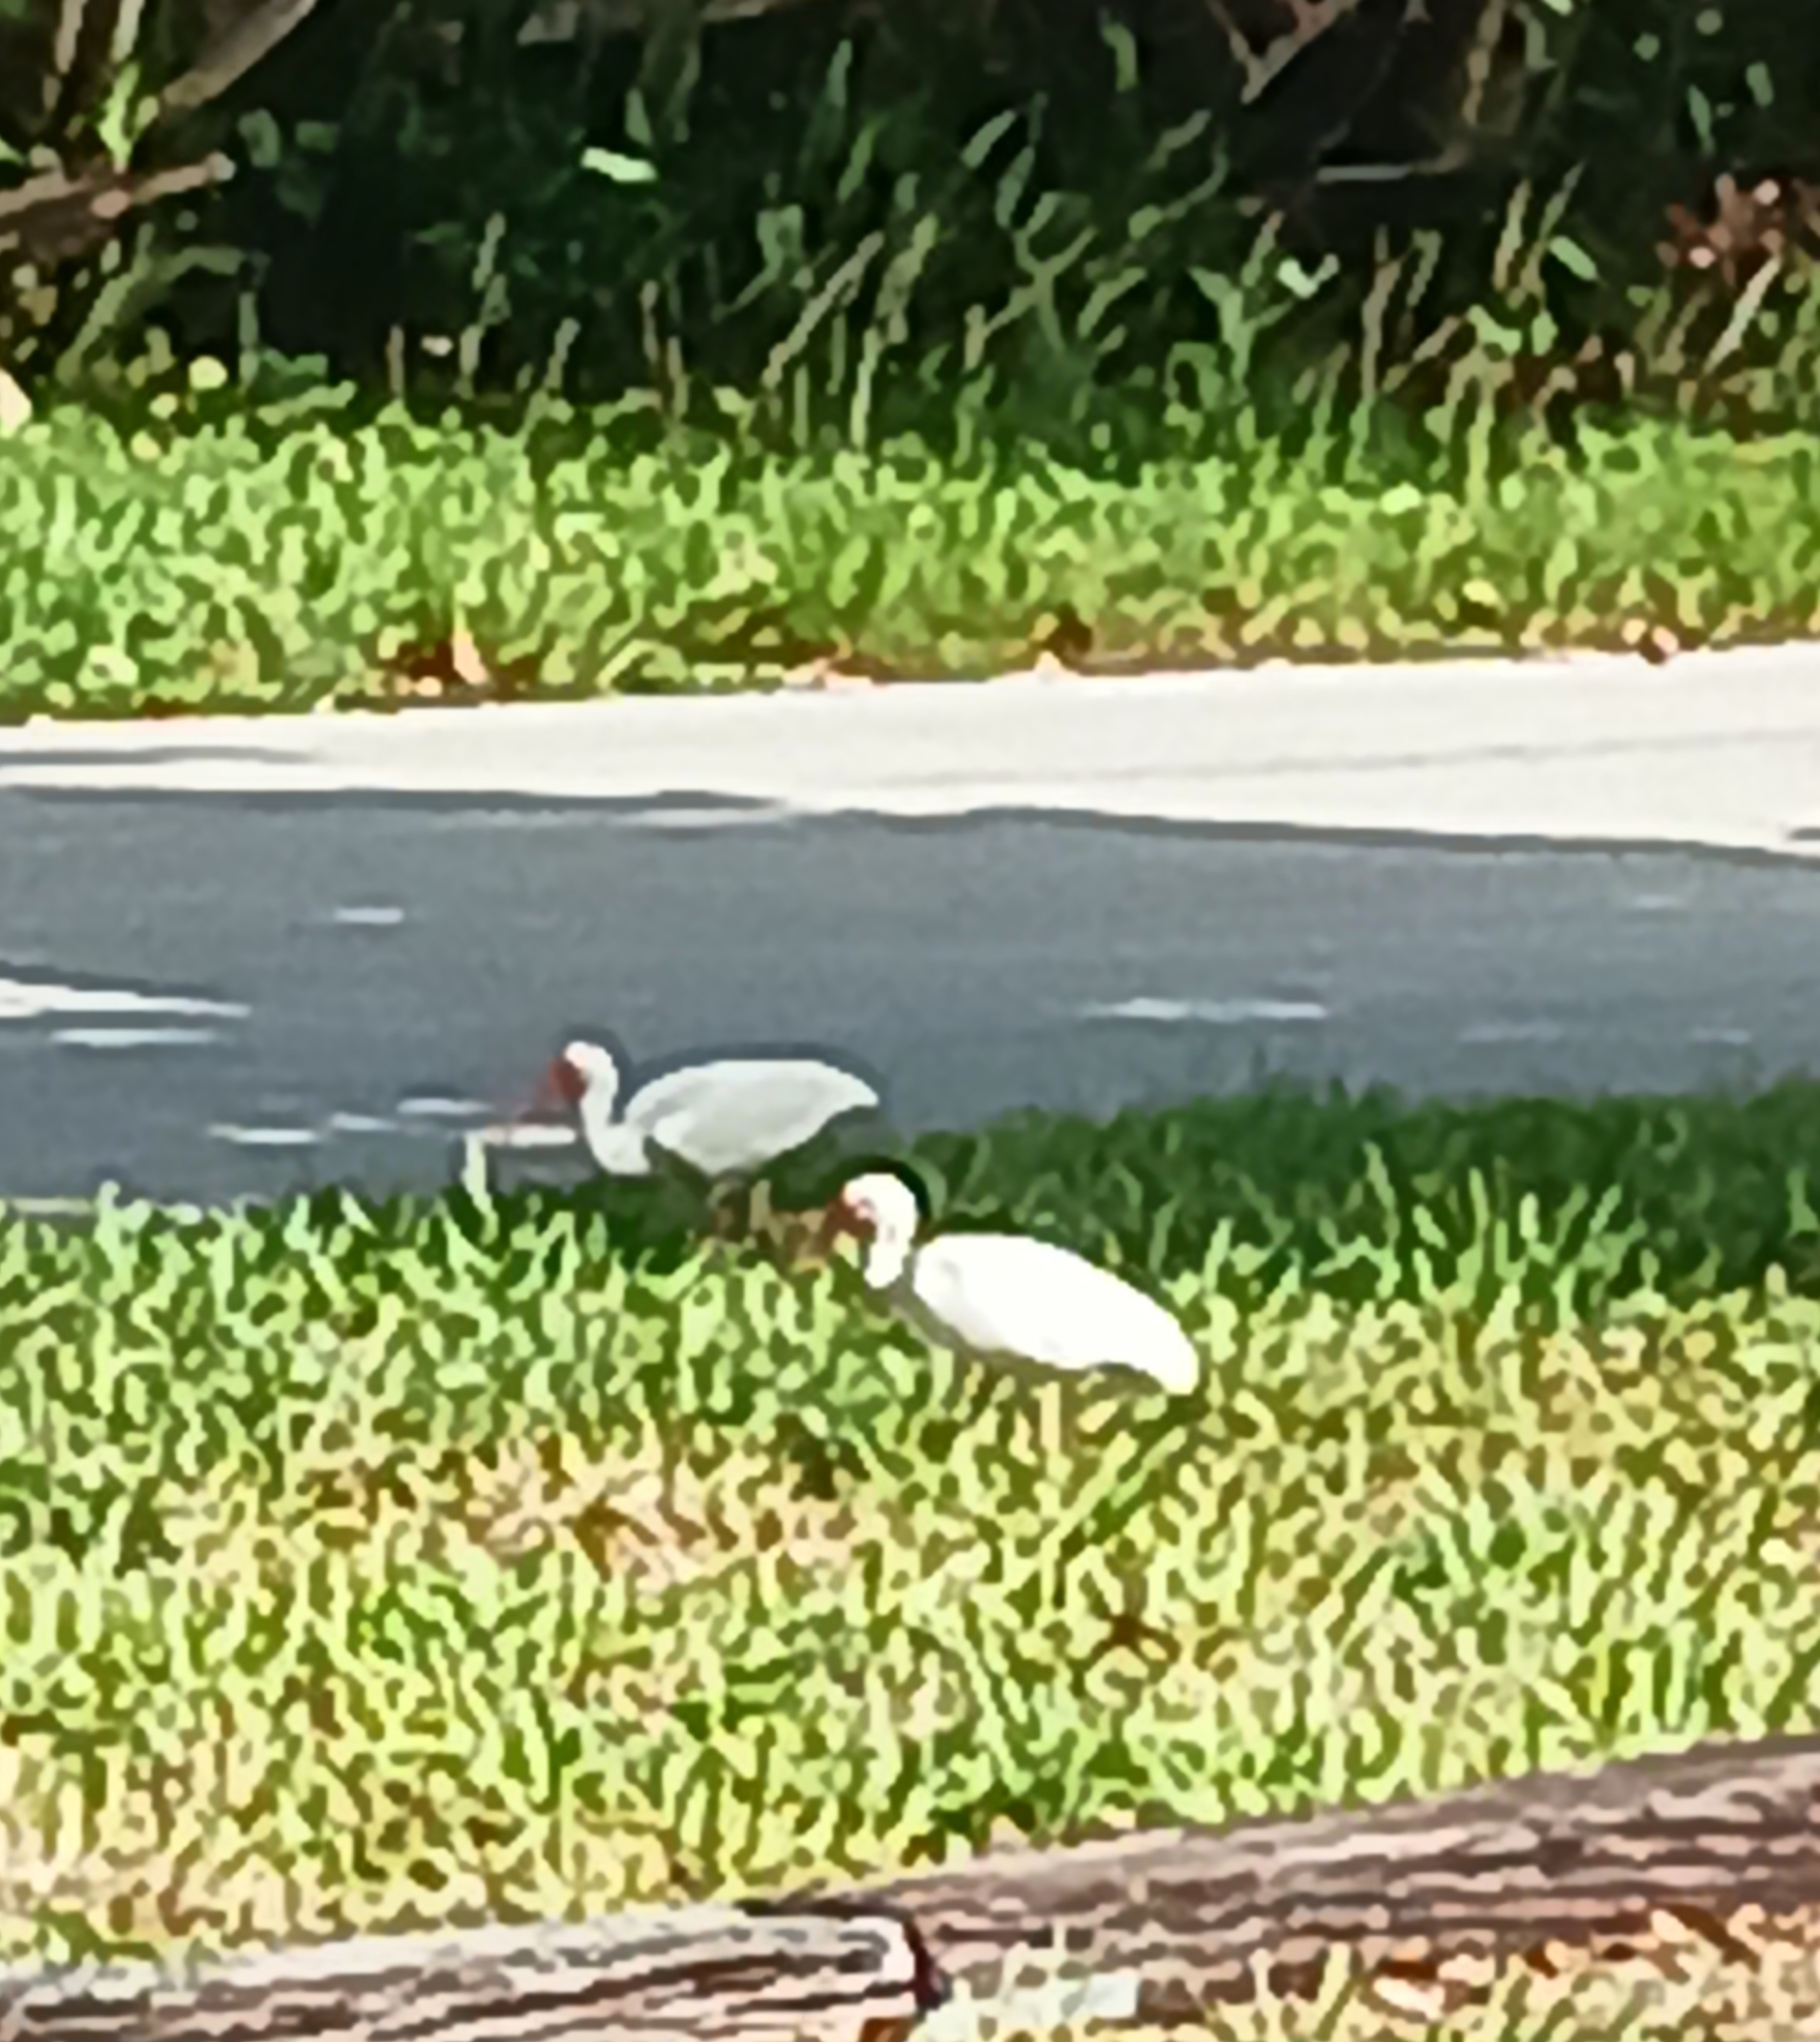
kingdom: Animalia
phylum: Chordata
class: Aves
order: Pelecaniformes
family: Threskiornithidae
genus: Eudocimus
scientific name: Eudocimus albus
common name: White ibis
